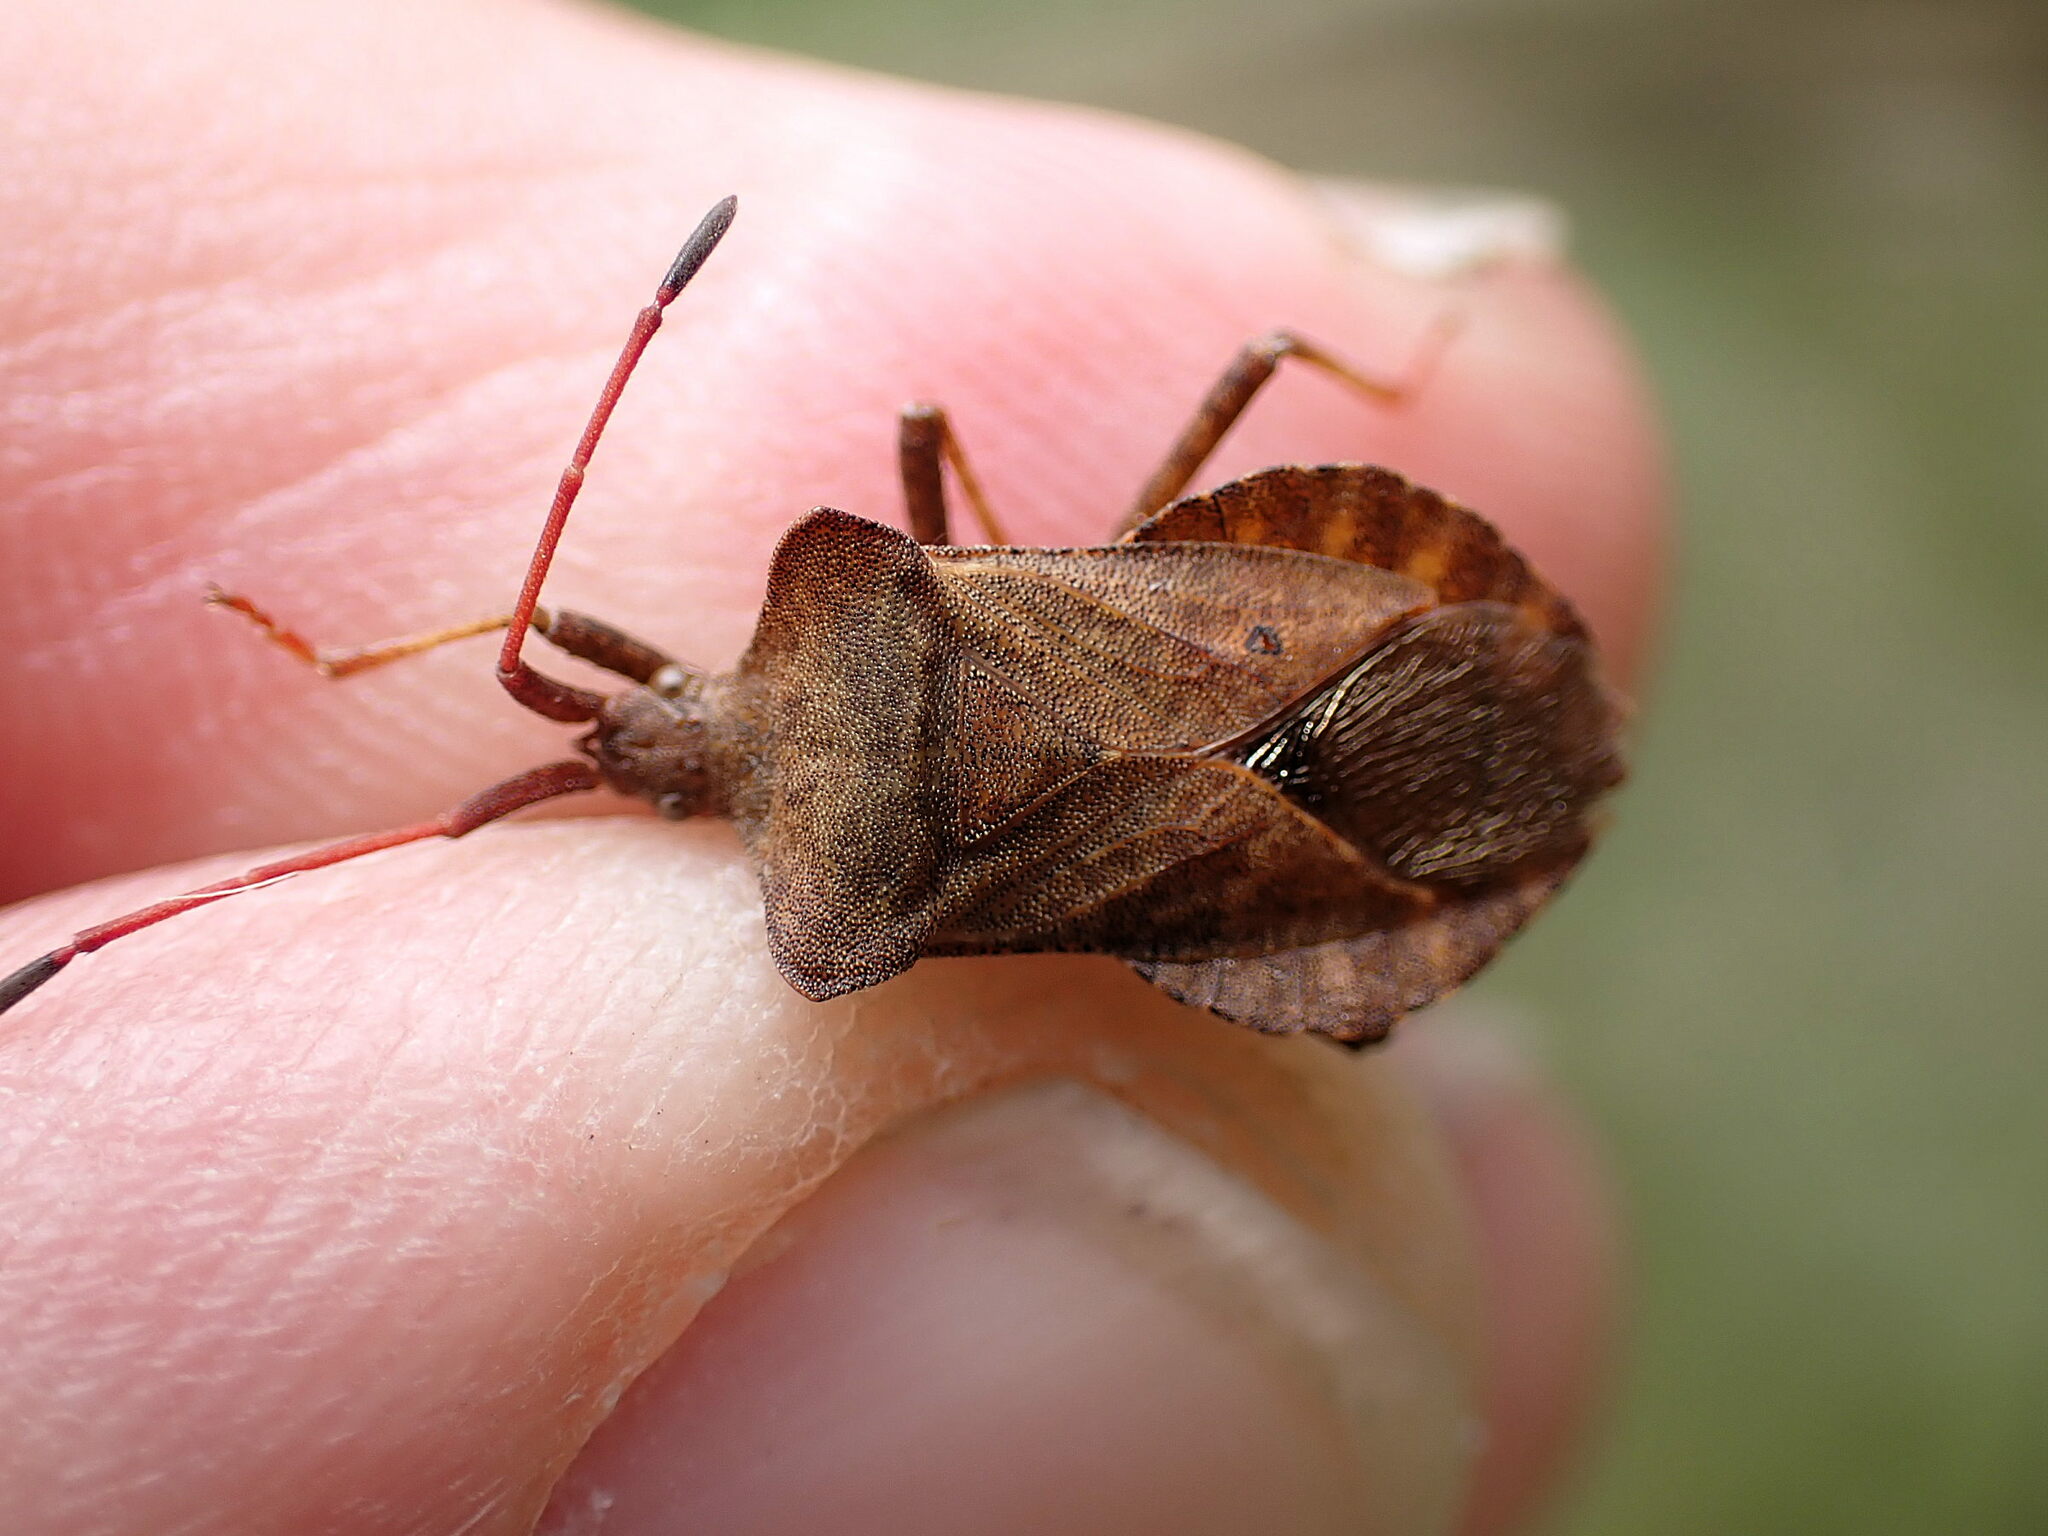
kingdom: Animalia
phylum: Arthropoda
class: Insecta
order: Hemiptera
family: Coreidae
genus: Coreus
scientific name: Coreus marginatus
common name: Dock bug
